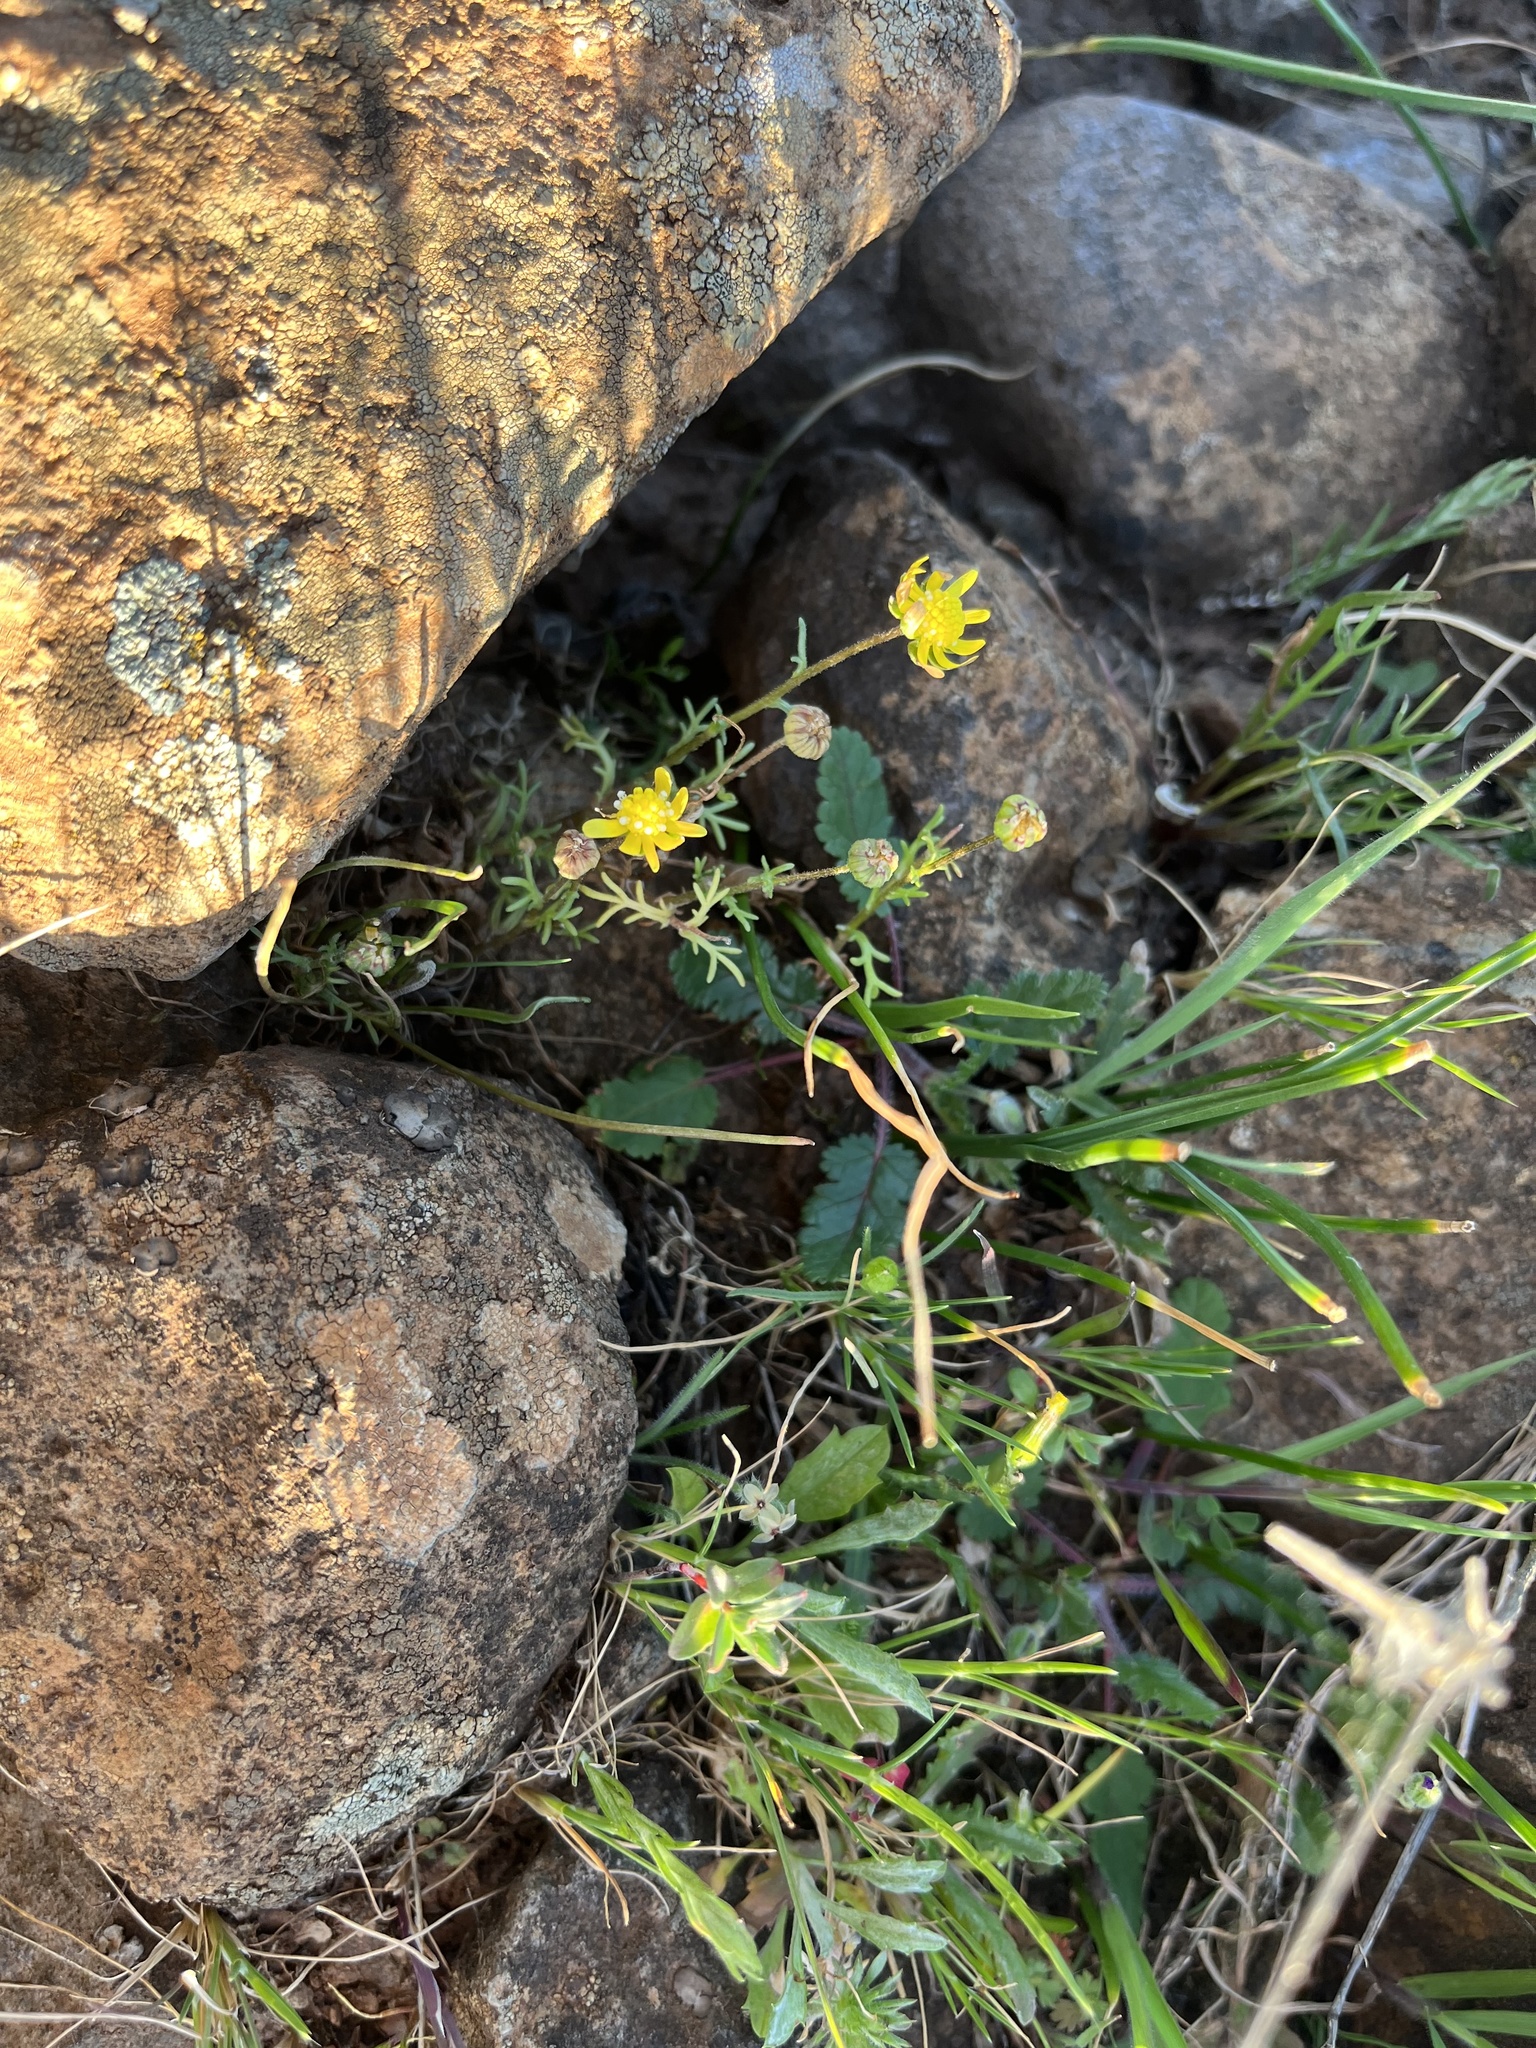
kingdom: Plantae
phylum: Tracheophyta
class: Magnoliopsida
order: Asterales
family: Asteraceae
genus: Blennosperma
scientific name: Blennosperma nanum
